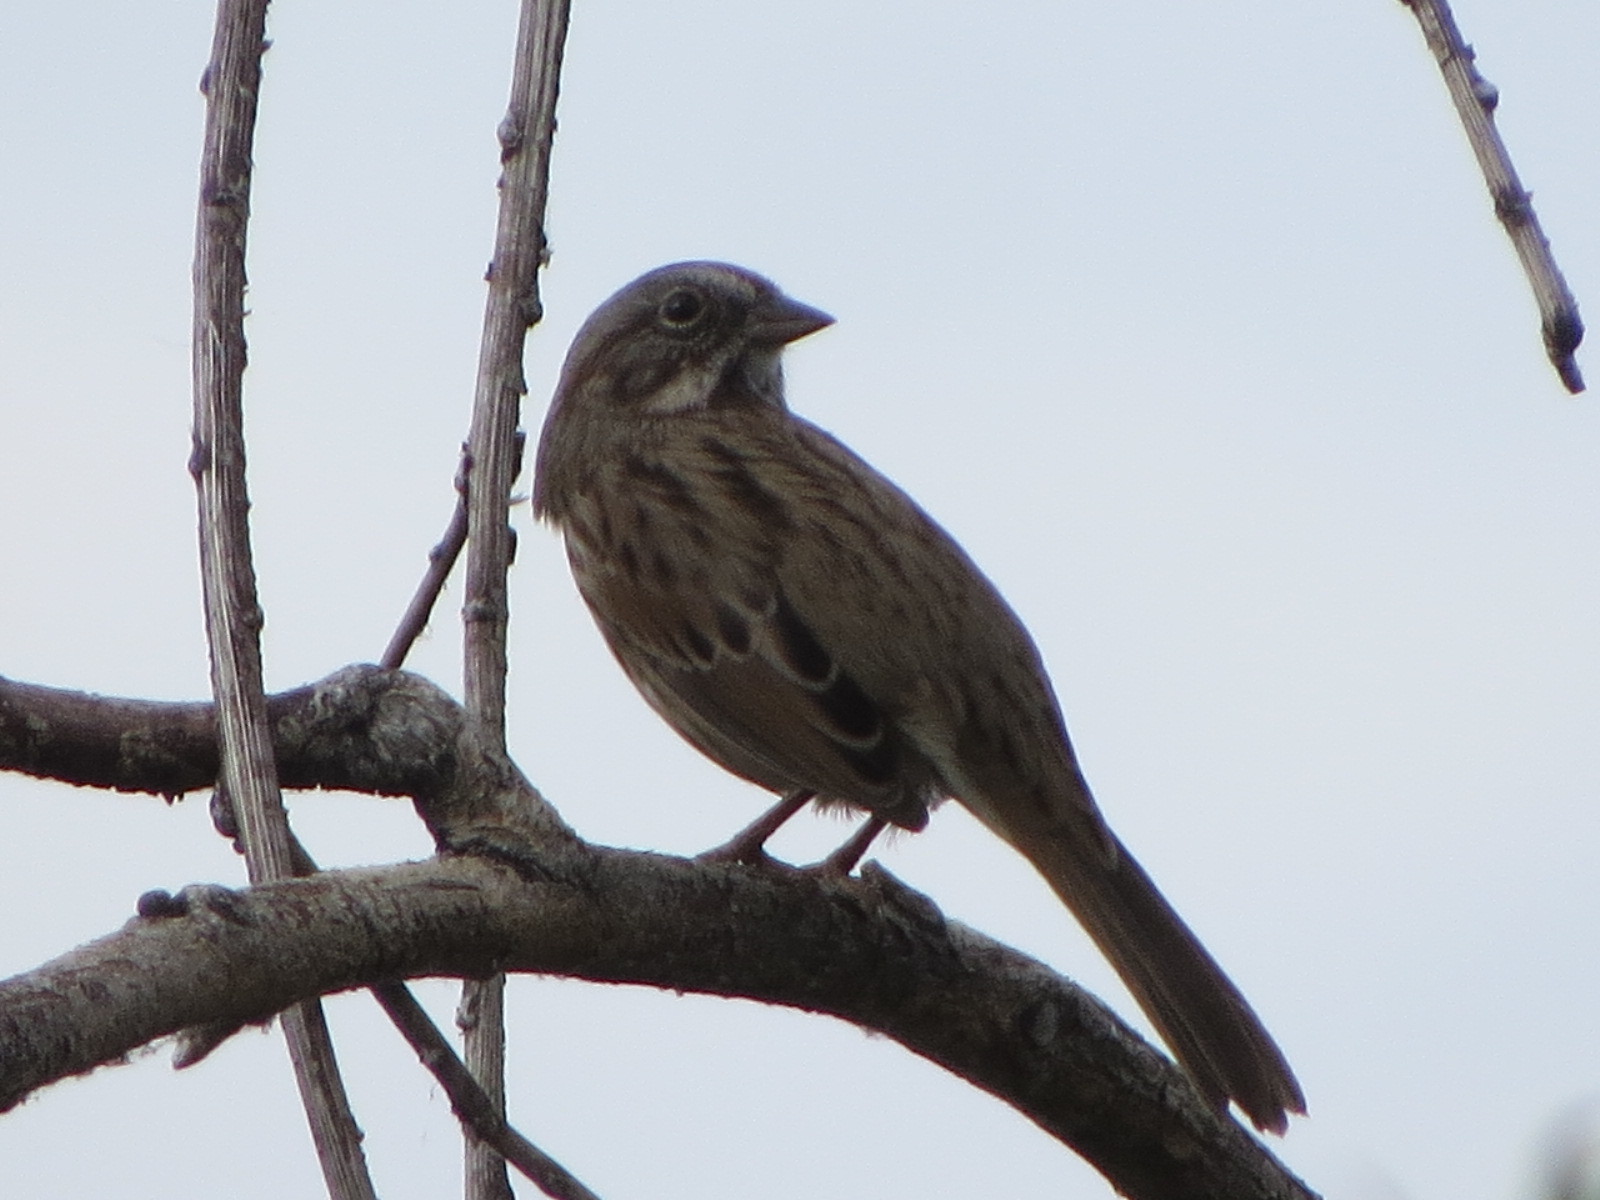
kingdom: Animalia
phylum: Chordata
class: Aves
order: Passeriformes
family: Passerellidae
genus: Melospiza
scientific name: Melospiza melodia
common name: Song sparrow
